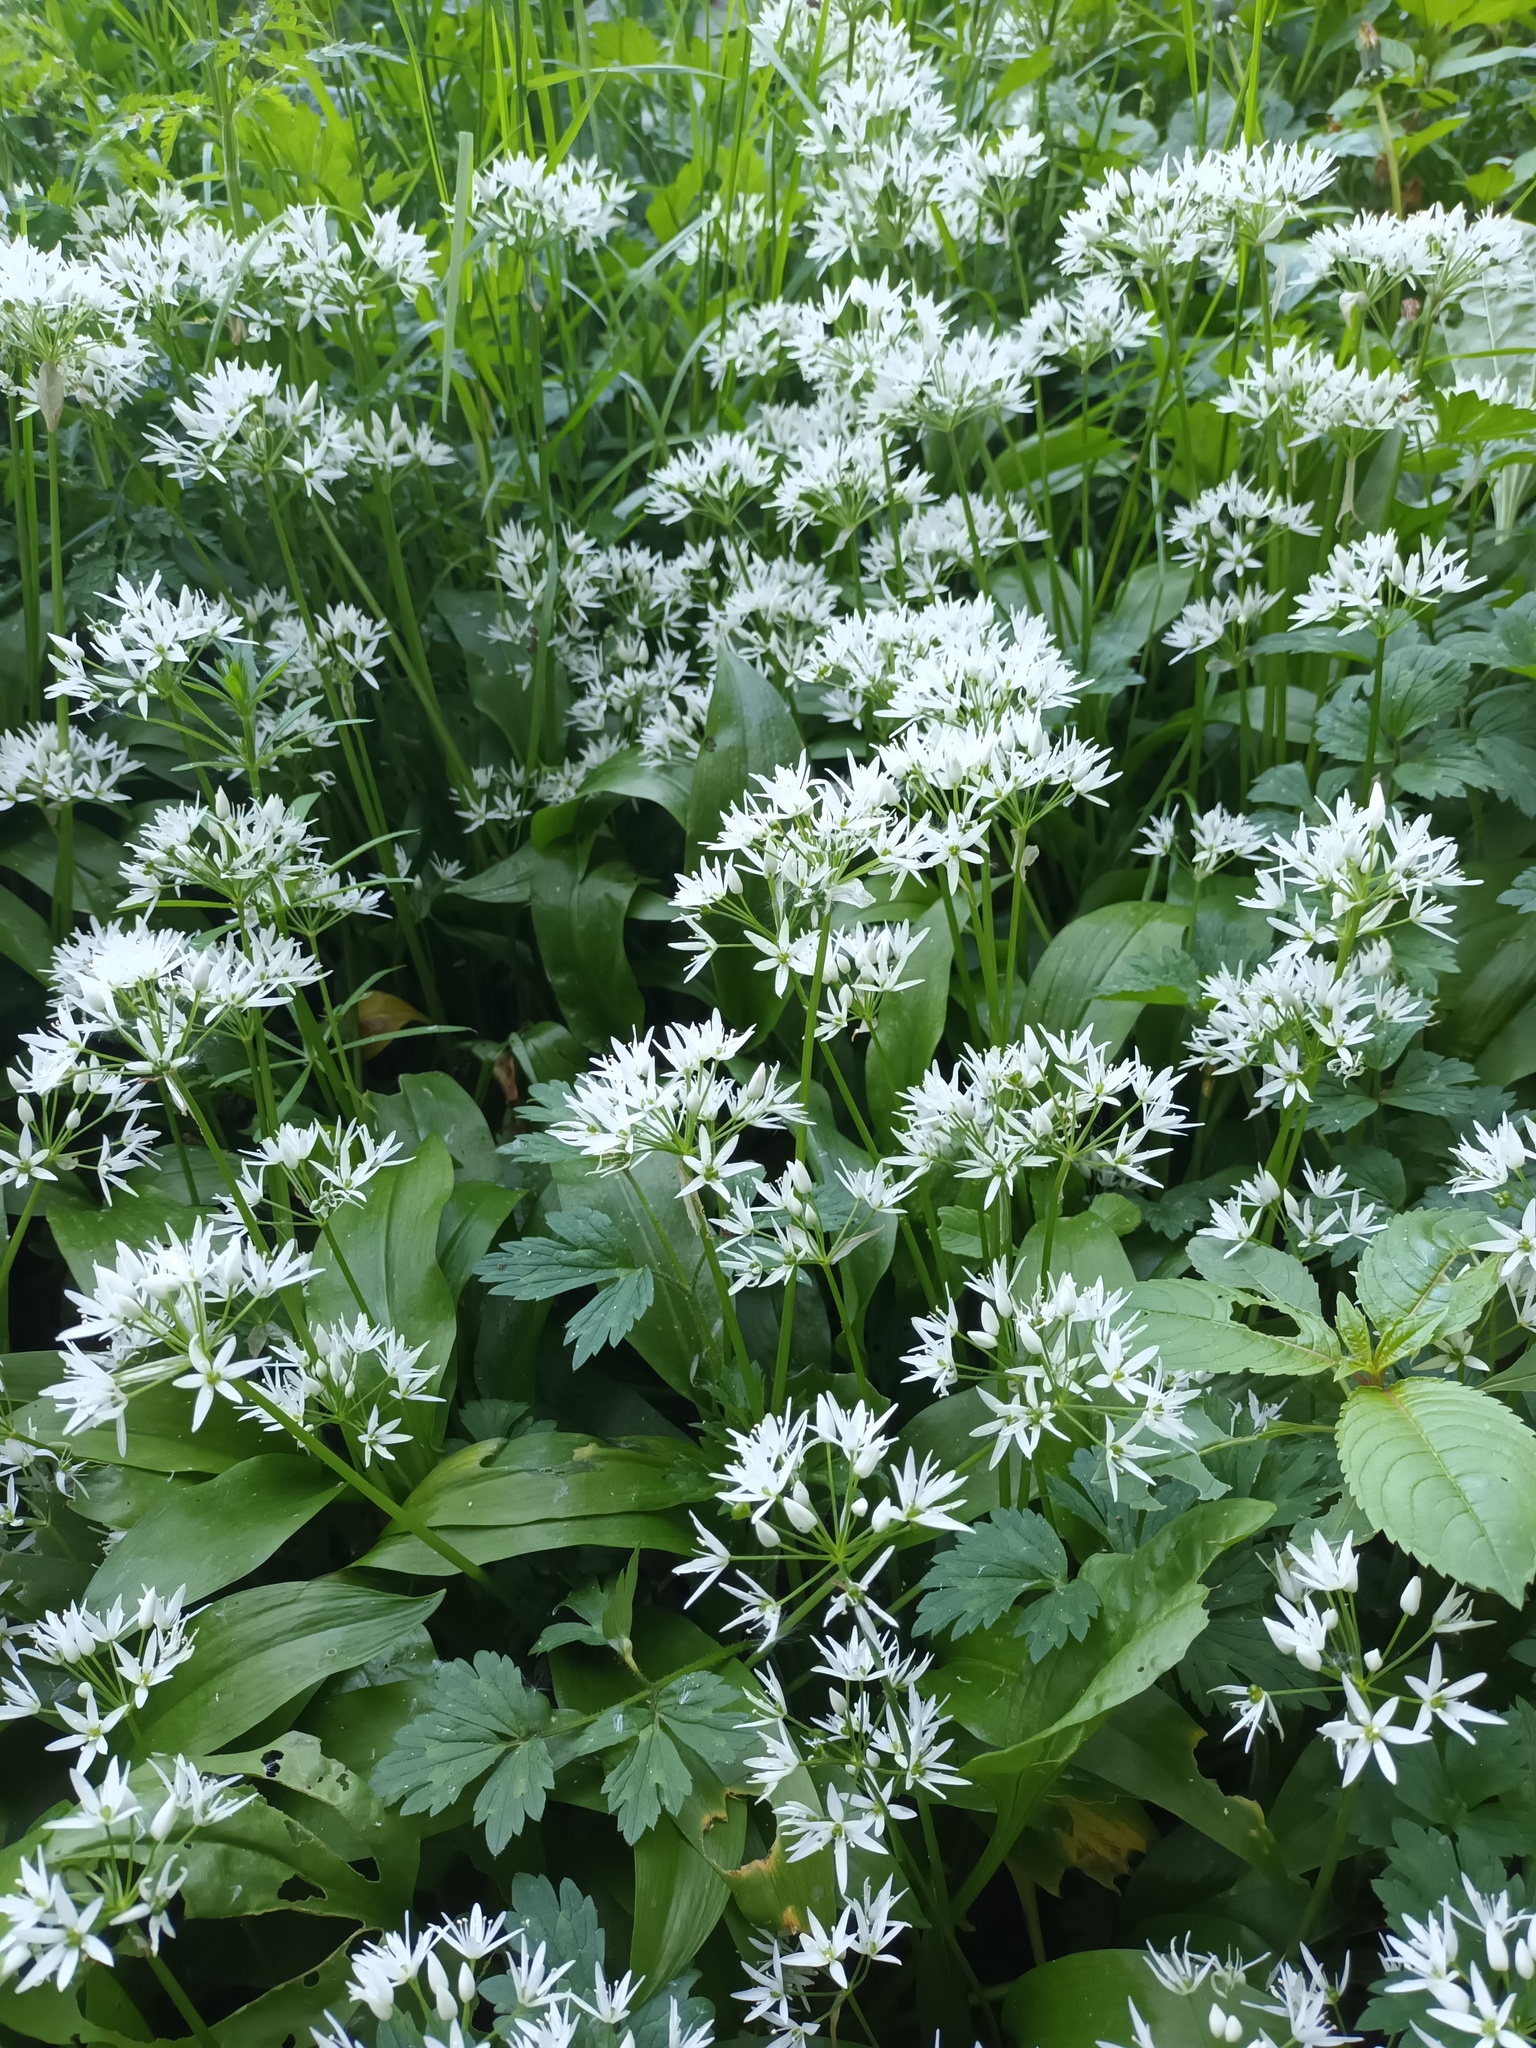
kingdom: Plantae
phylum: Tracheophyta
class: Liliopsida
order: Asparagales
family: Amaryllidaceae
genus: Allium
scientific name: Allium ursinum
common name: Ramsons
